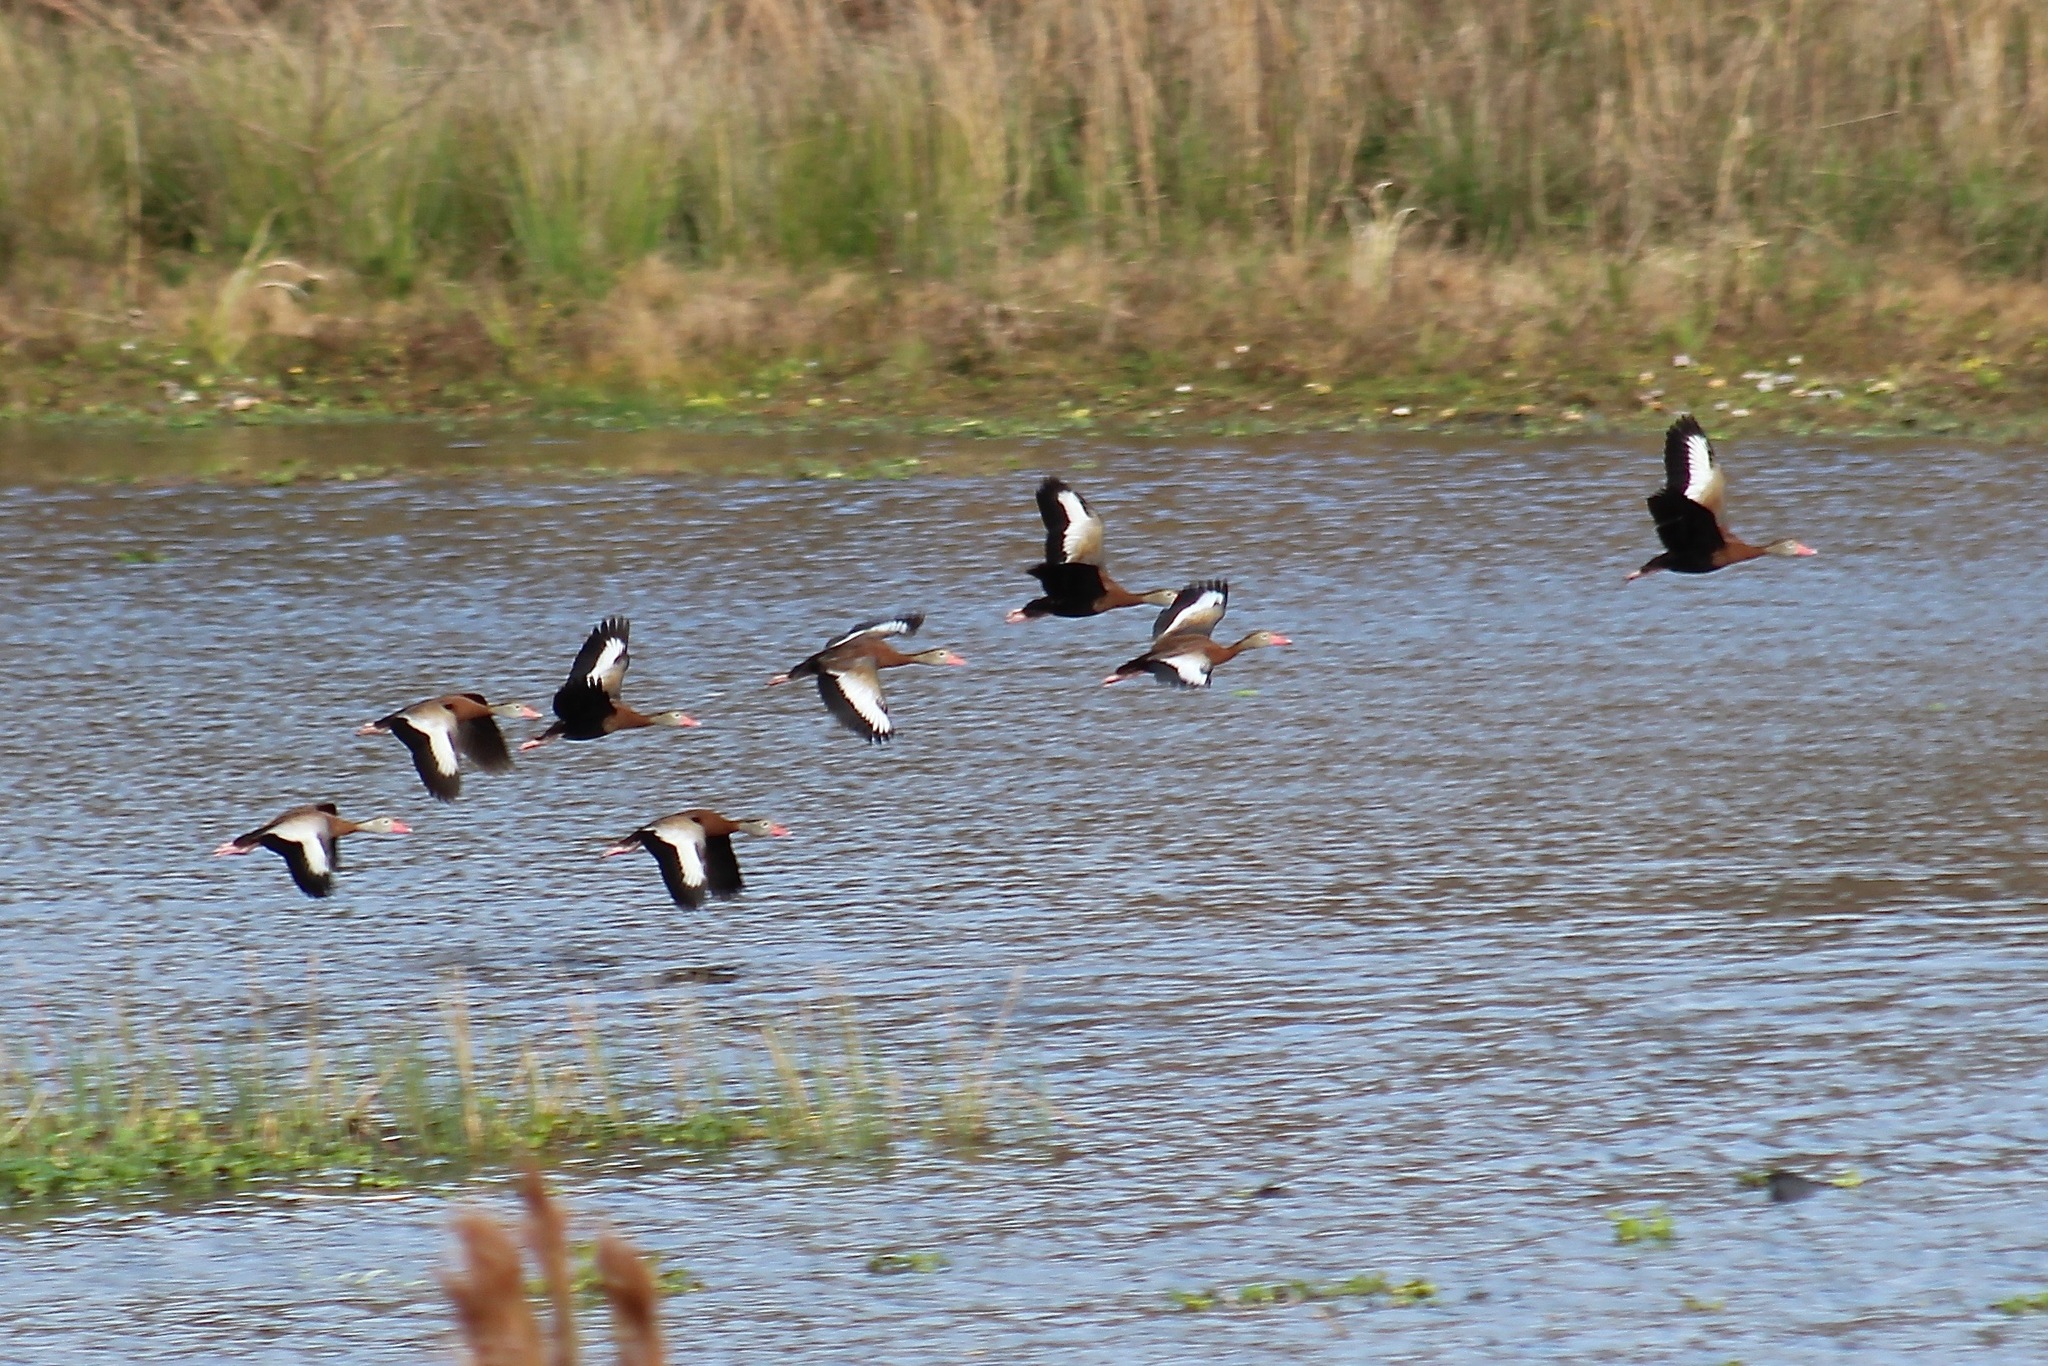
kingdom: Animalia
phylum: Chordata
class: Aves
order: Anseriformes
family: Anatidae
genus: Dendrocygna
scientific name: Dendrocygna autumnalis
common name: Black-bellied whistling duck
